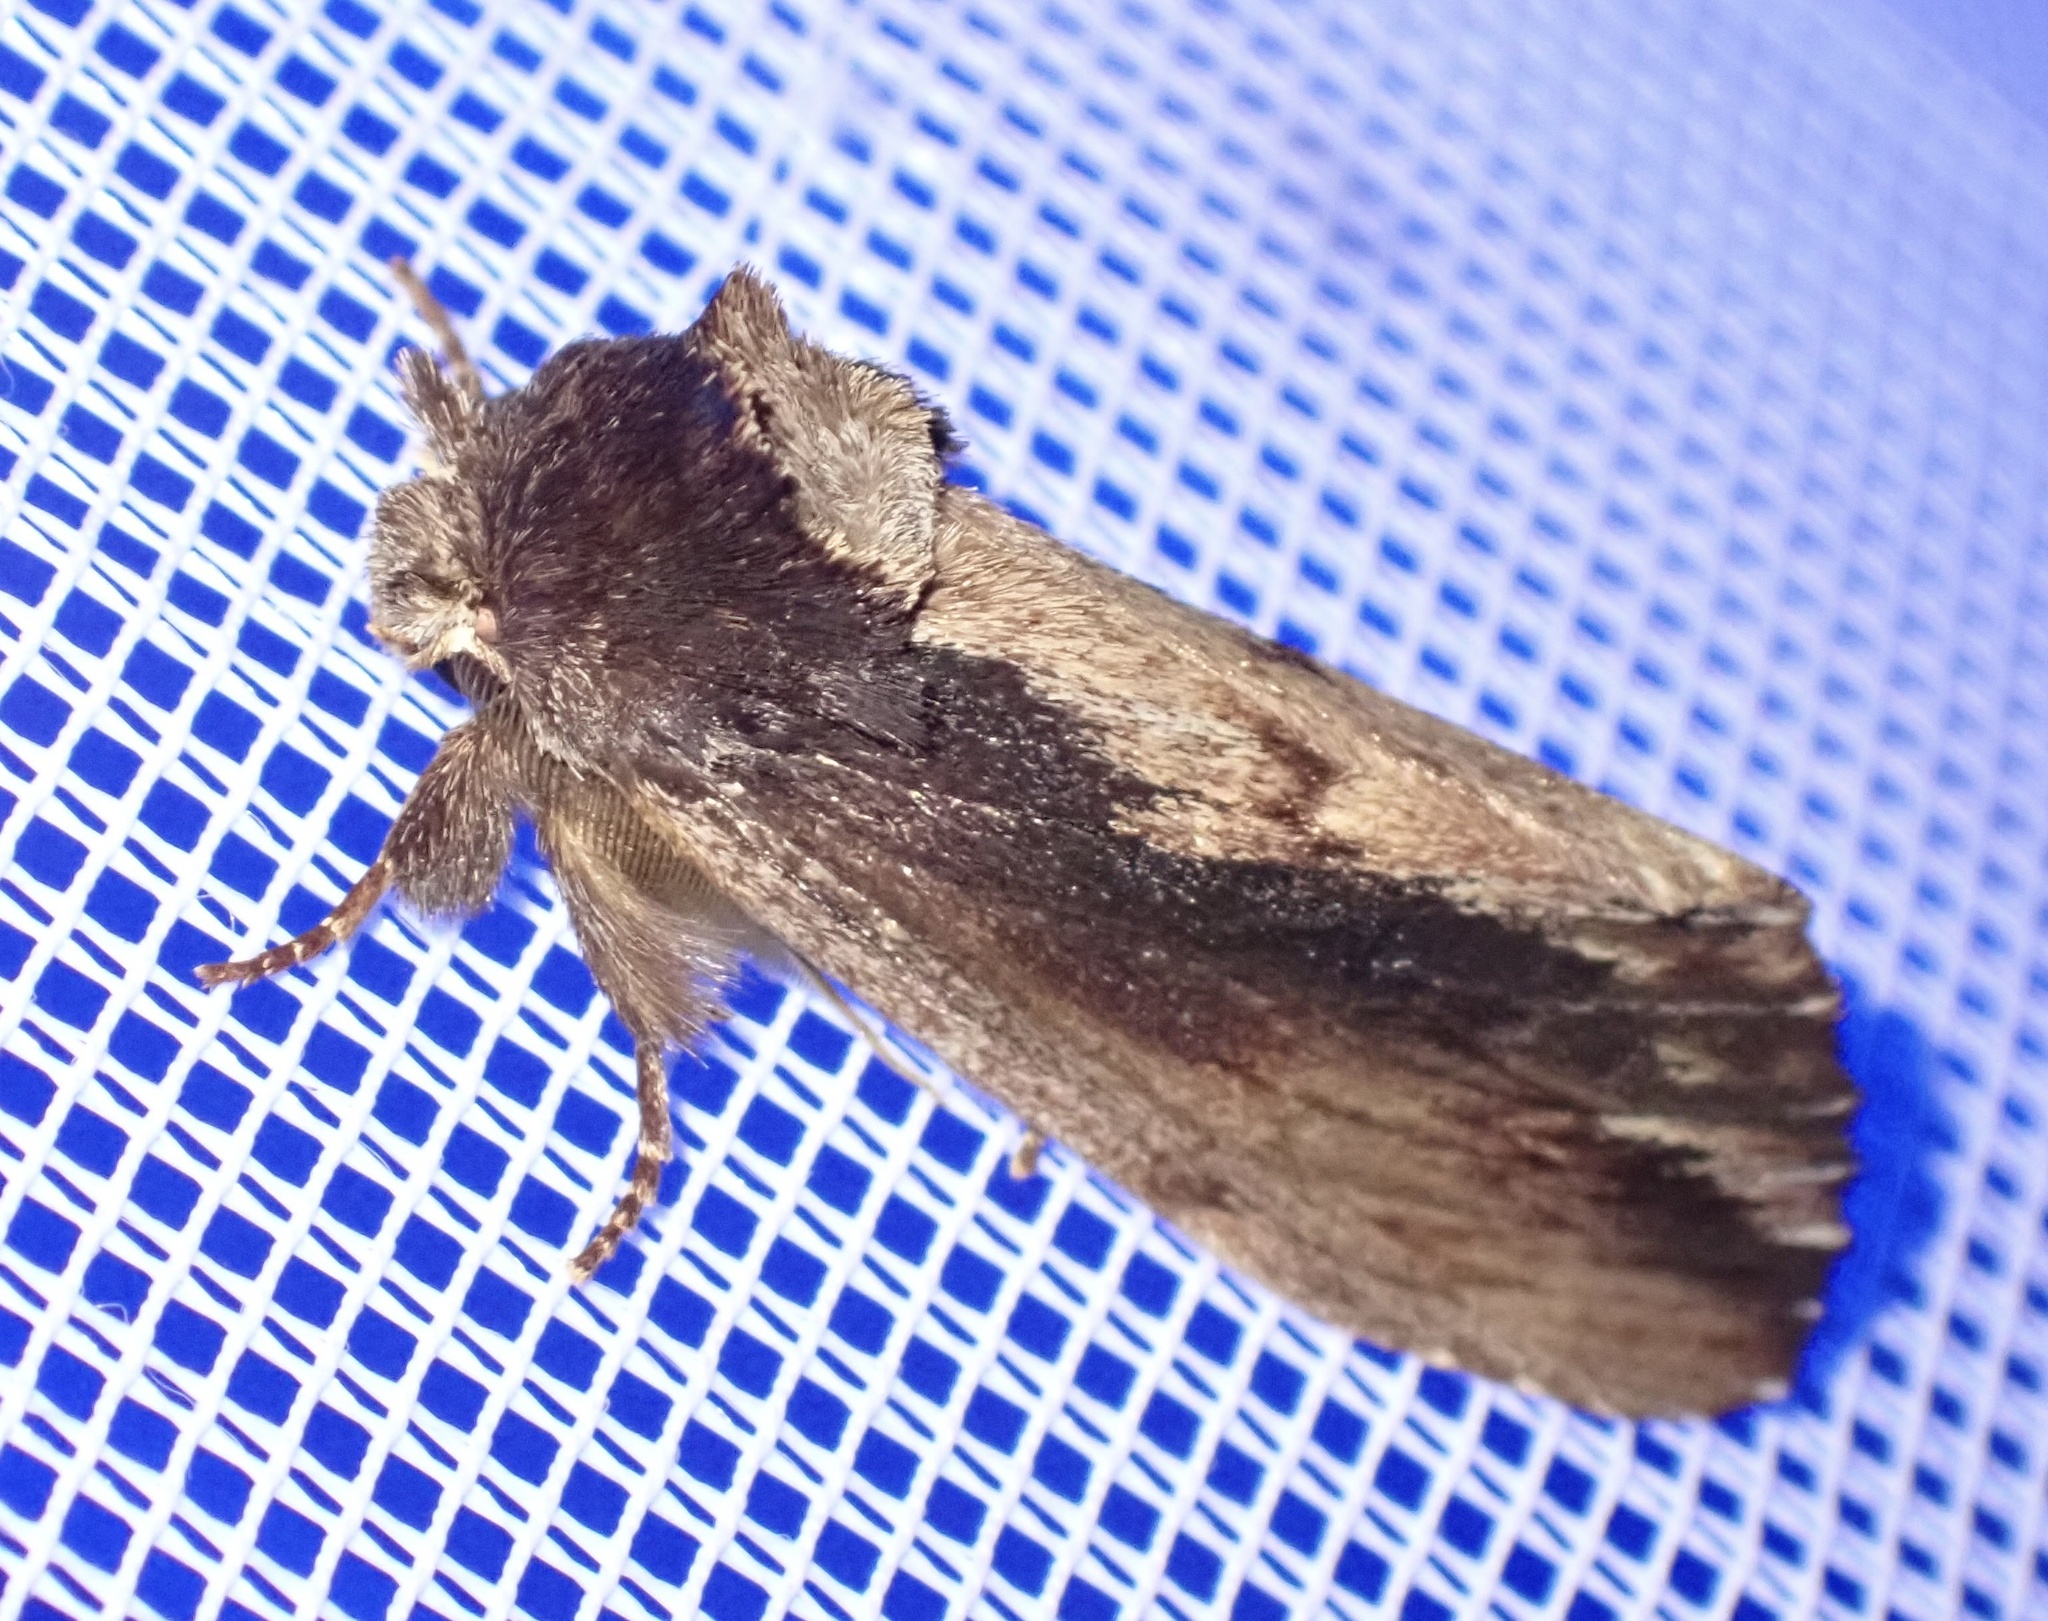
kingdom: Animalia
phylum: Arthropoda
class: Insecta
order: Lepidoptera
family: Notodontidae
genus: Hylaeora
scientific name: Hylaeora capucina
